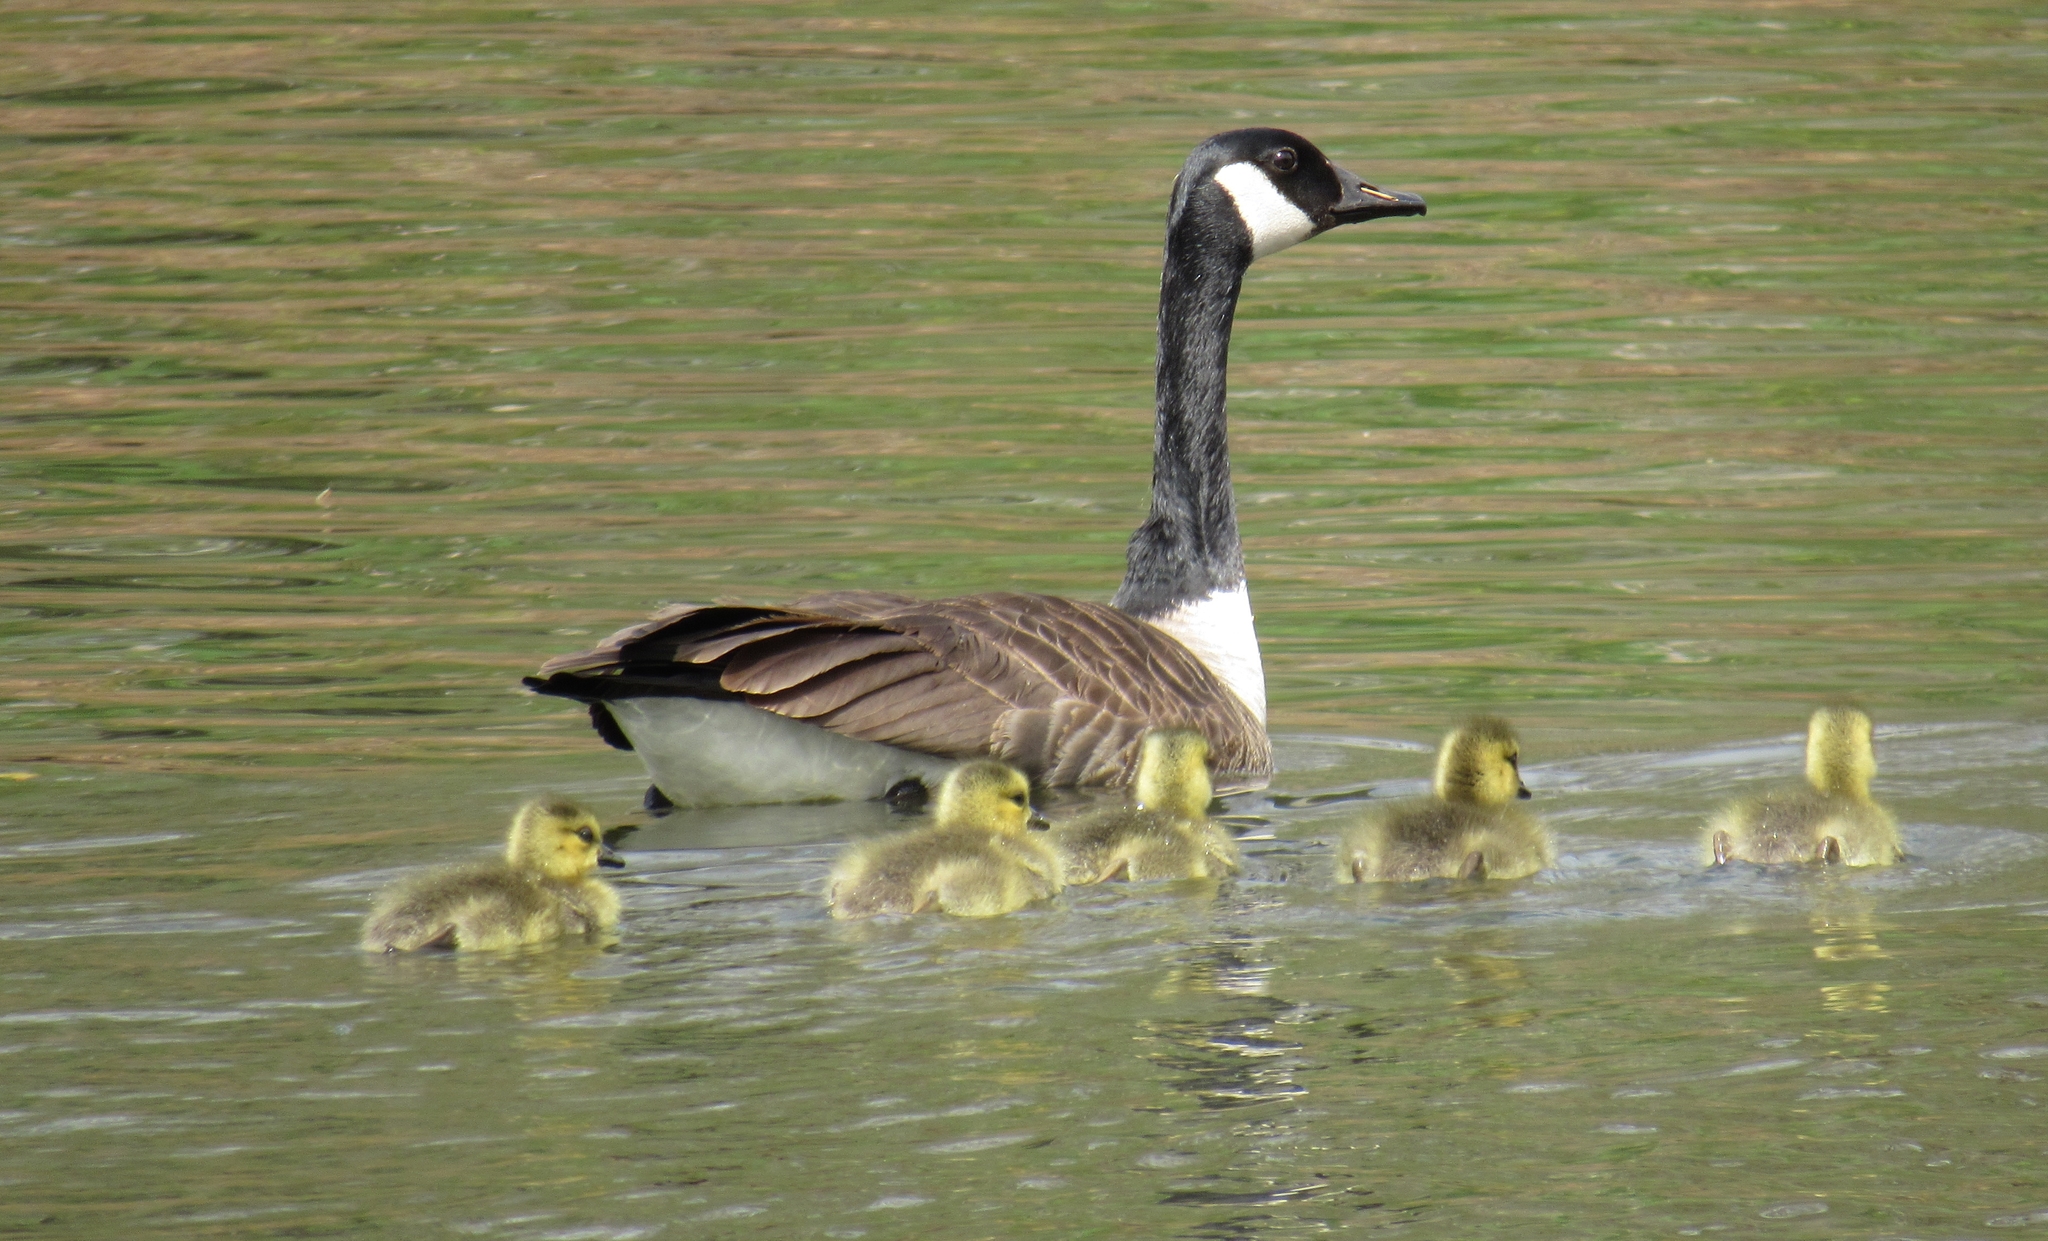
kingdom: Animalia
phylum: Chordata
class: Aves
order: Anseriformes
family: Anatidae
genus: Branta
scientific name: Branta canadensis
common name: Canada goose
